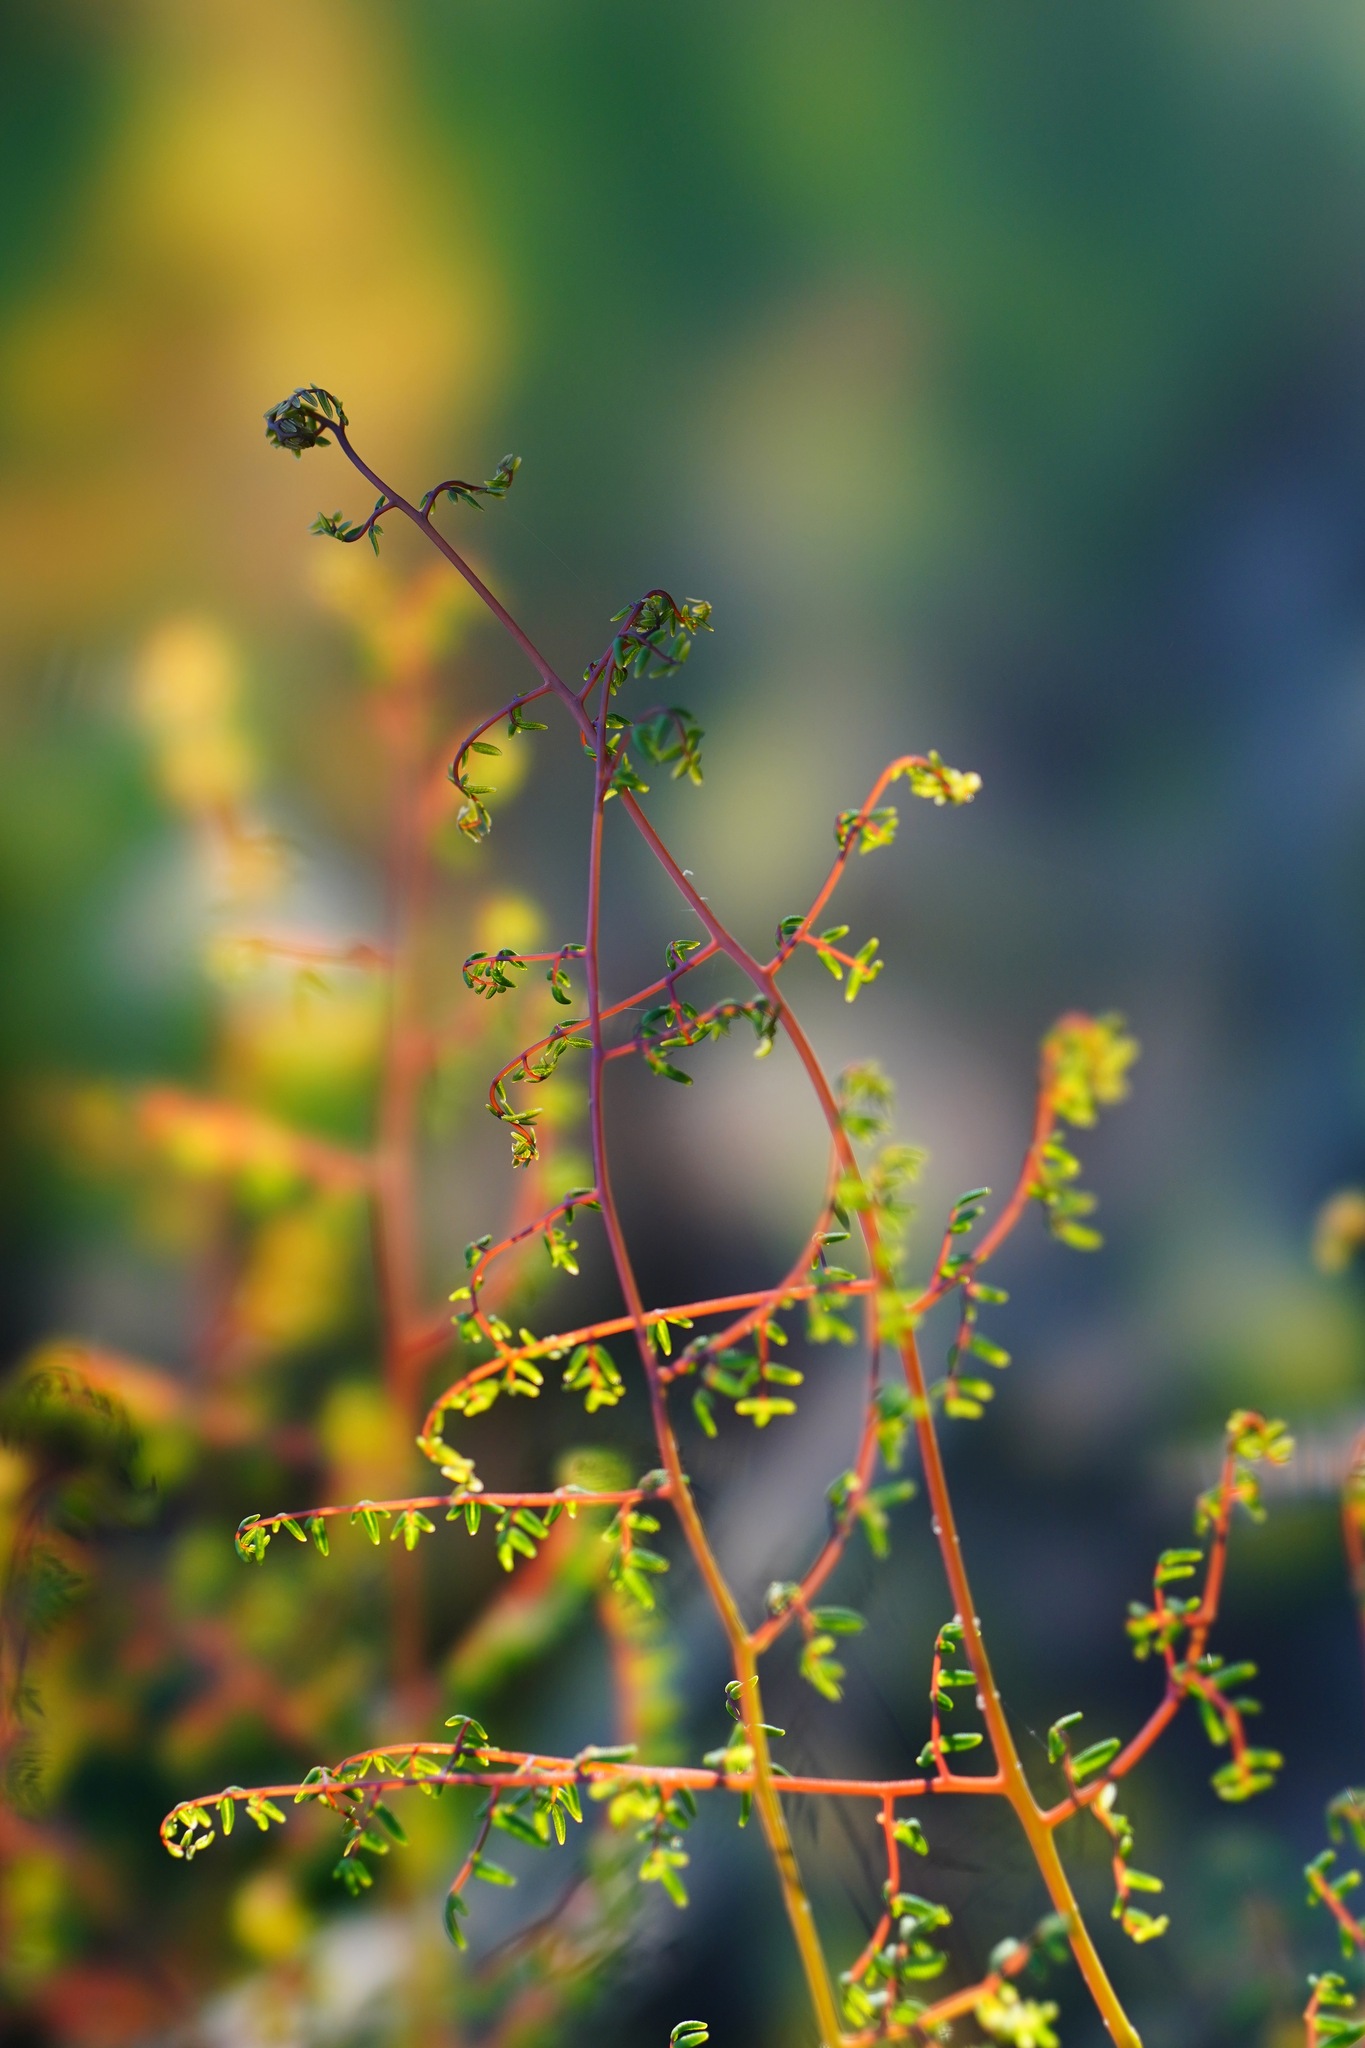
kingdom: Plantae
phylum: Tracheophyta
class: Polypodiopsida
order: Polypodiales
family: Pteridaceae
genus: Pellaea
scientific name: Pellaea andromedifolia
